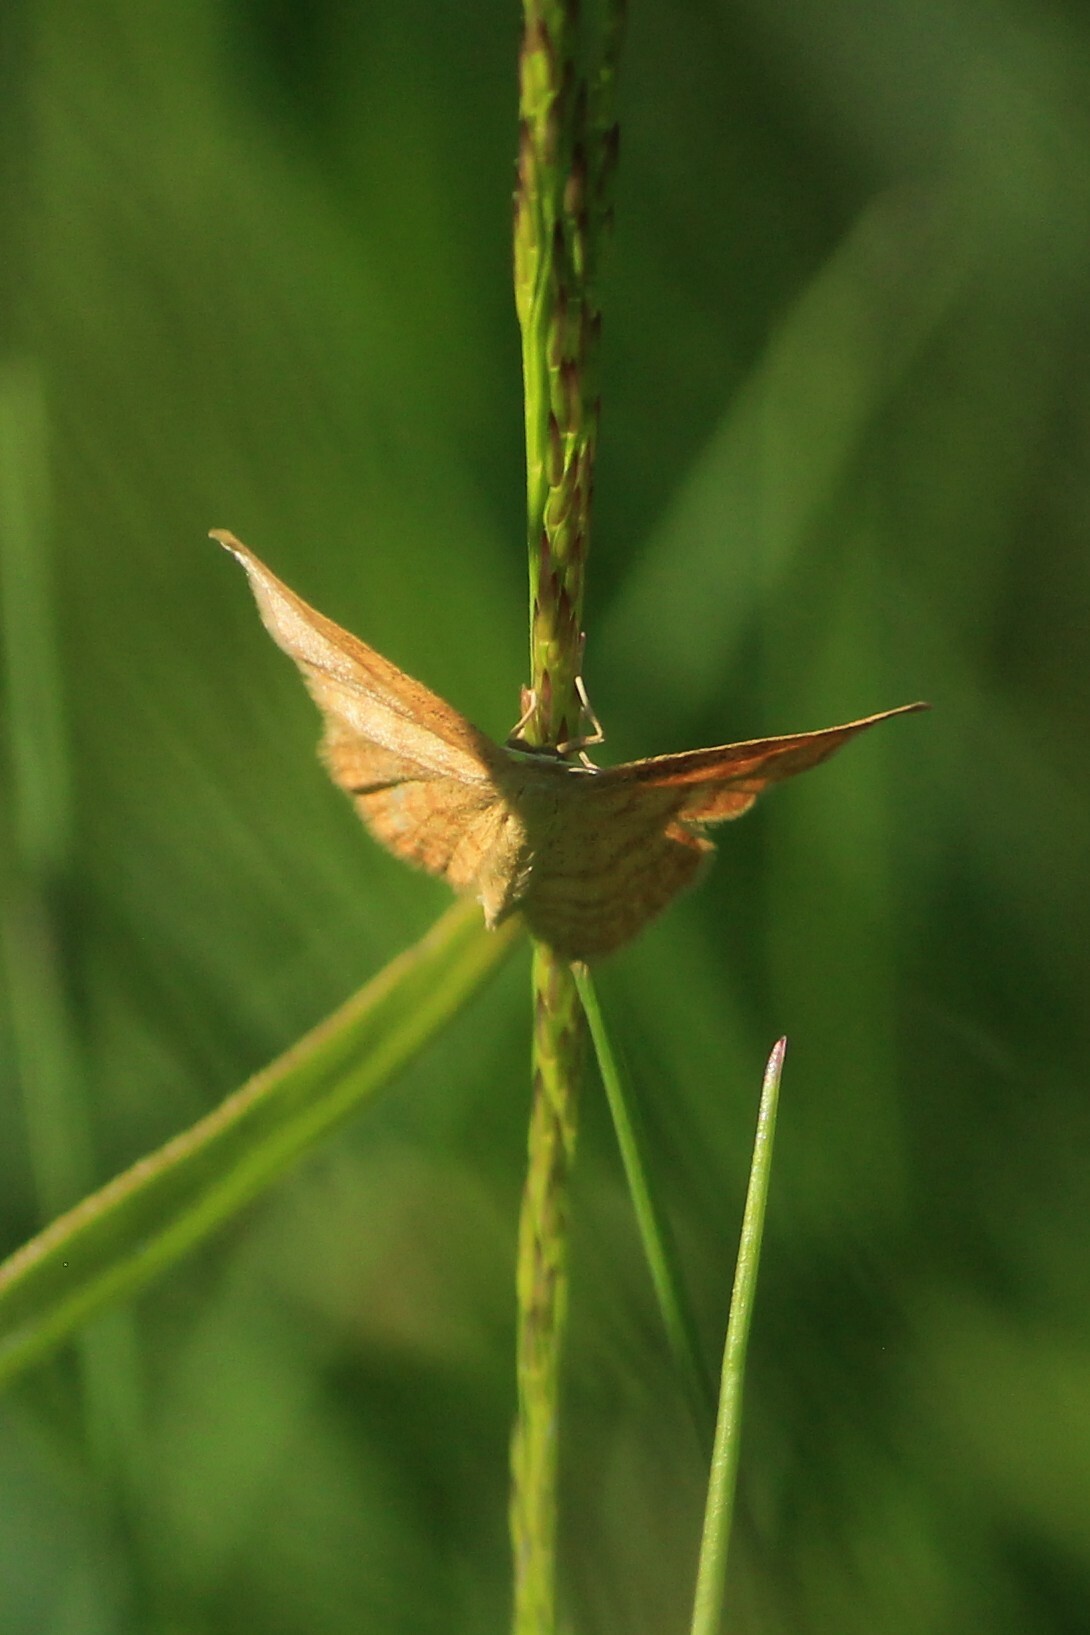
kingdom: Animalia
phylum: Arthropoda
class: Insecta
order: Lepidoptera
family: Geometridae
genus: Idaea
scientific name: Idaea serpentata
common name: Ochraceous wave
